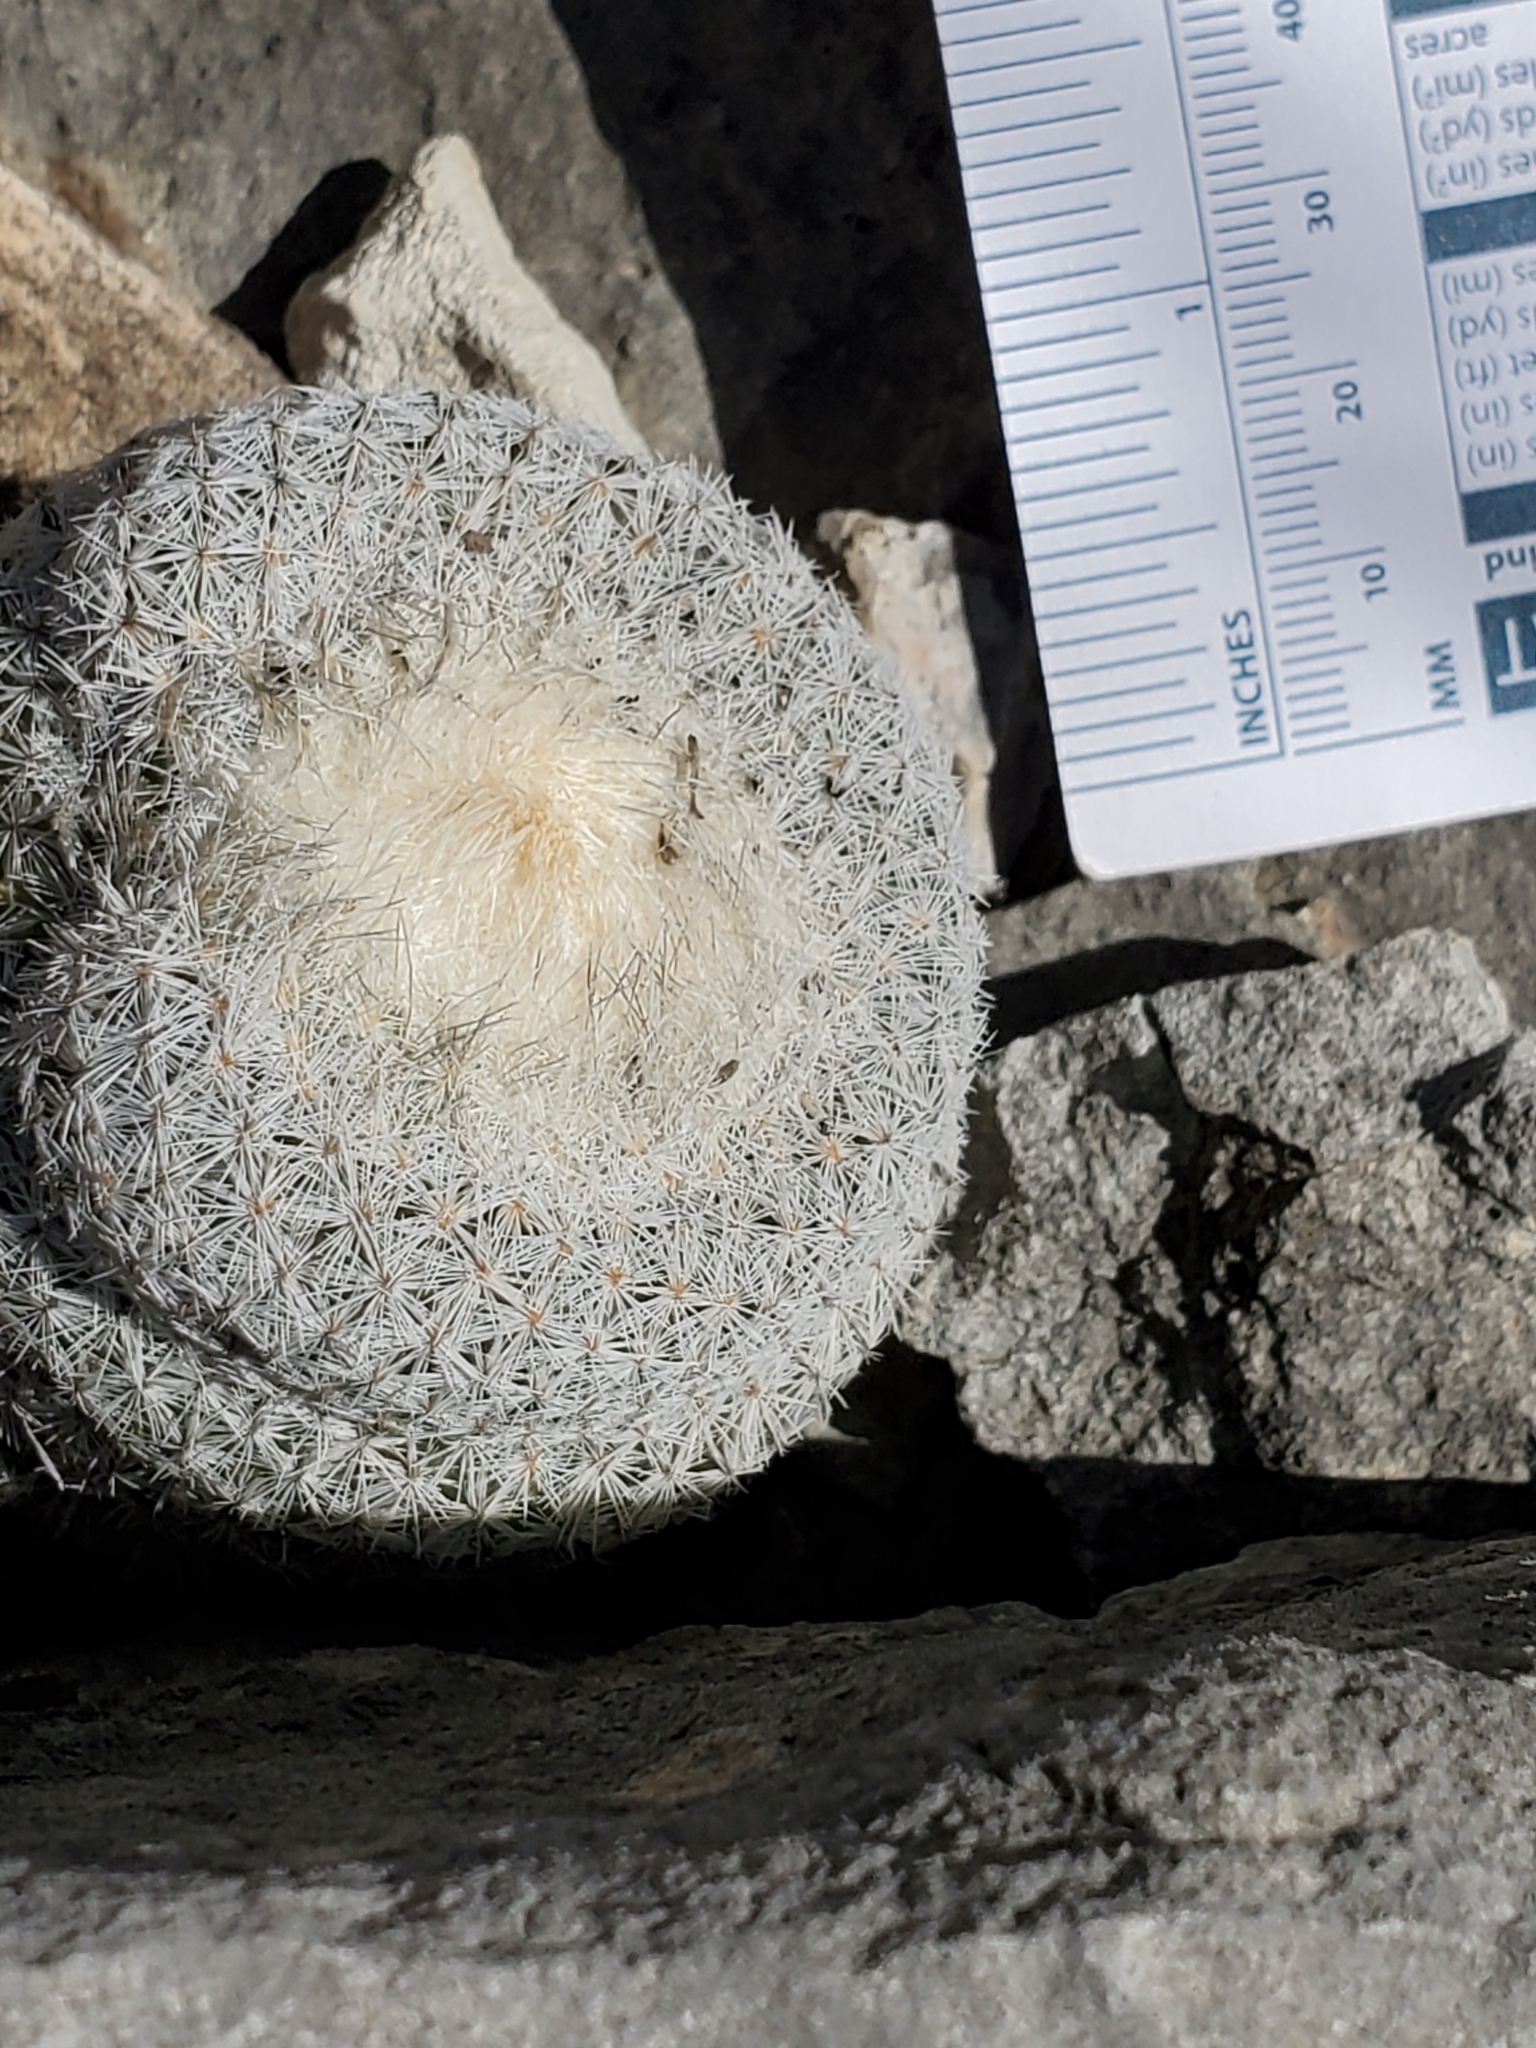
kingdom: Plantae
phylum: Tracheophyta
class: Magnoliopsida
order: Caryophyllales
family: Cactaceae
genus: Epithelantha
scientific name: Epithelantha micromeris
